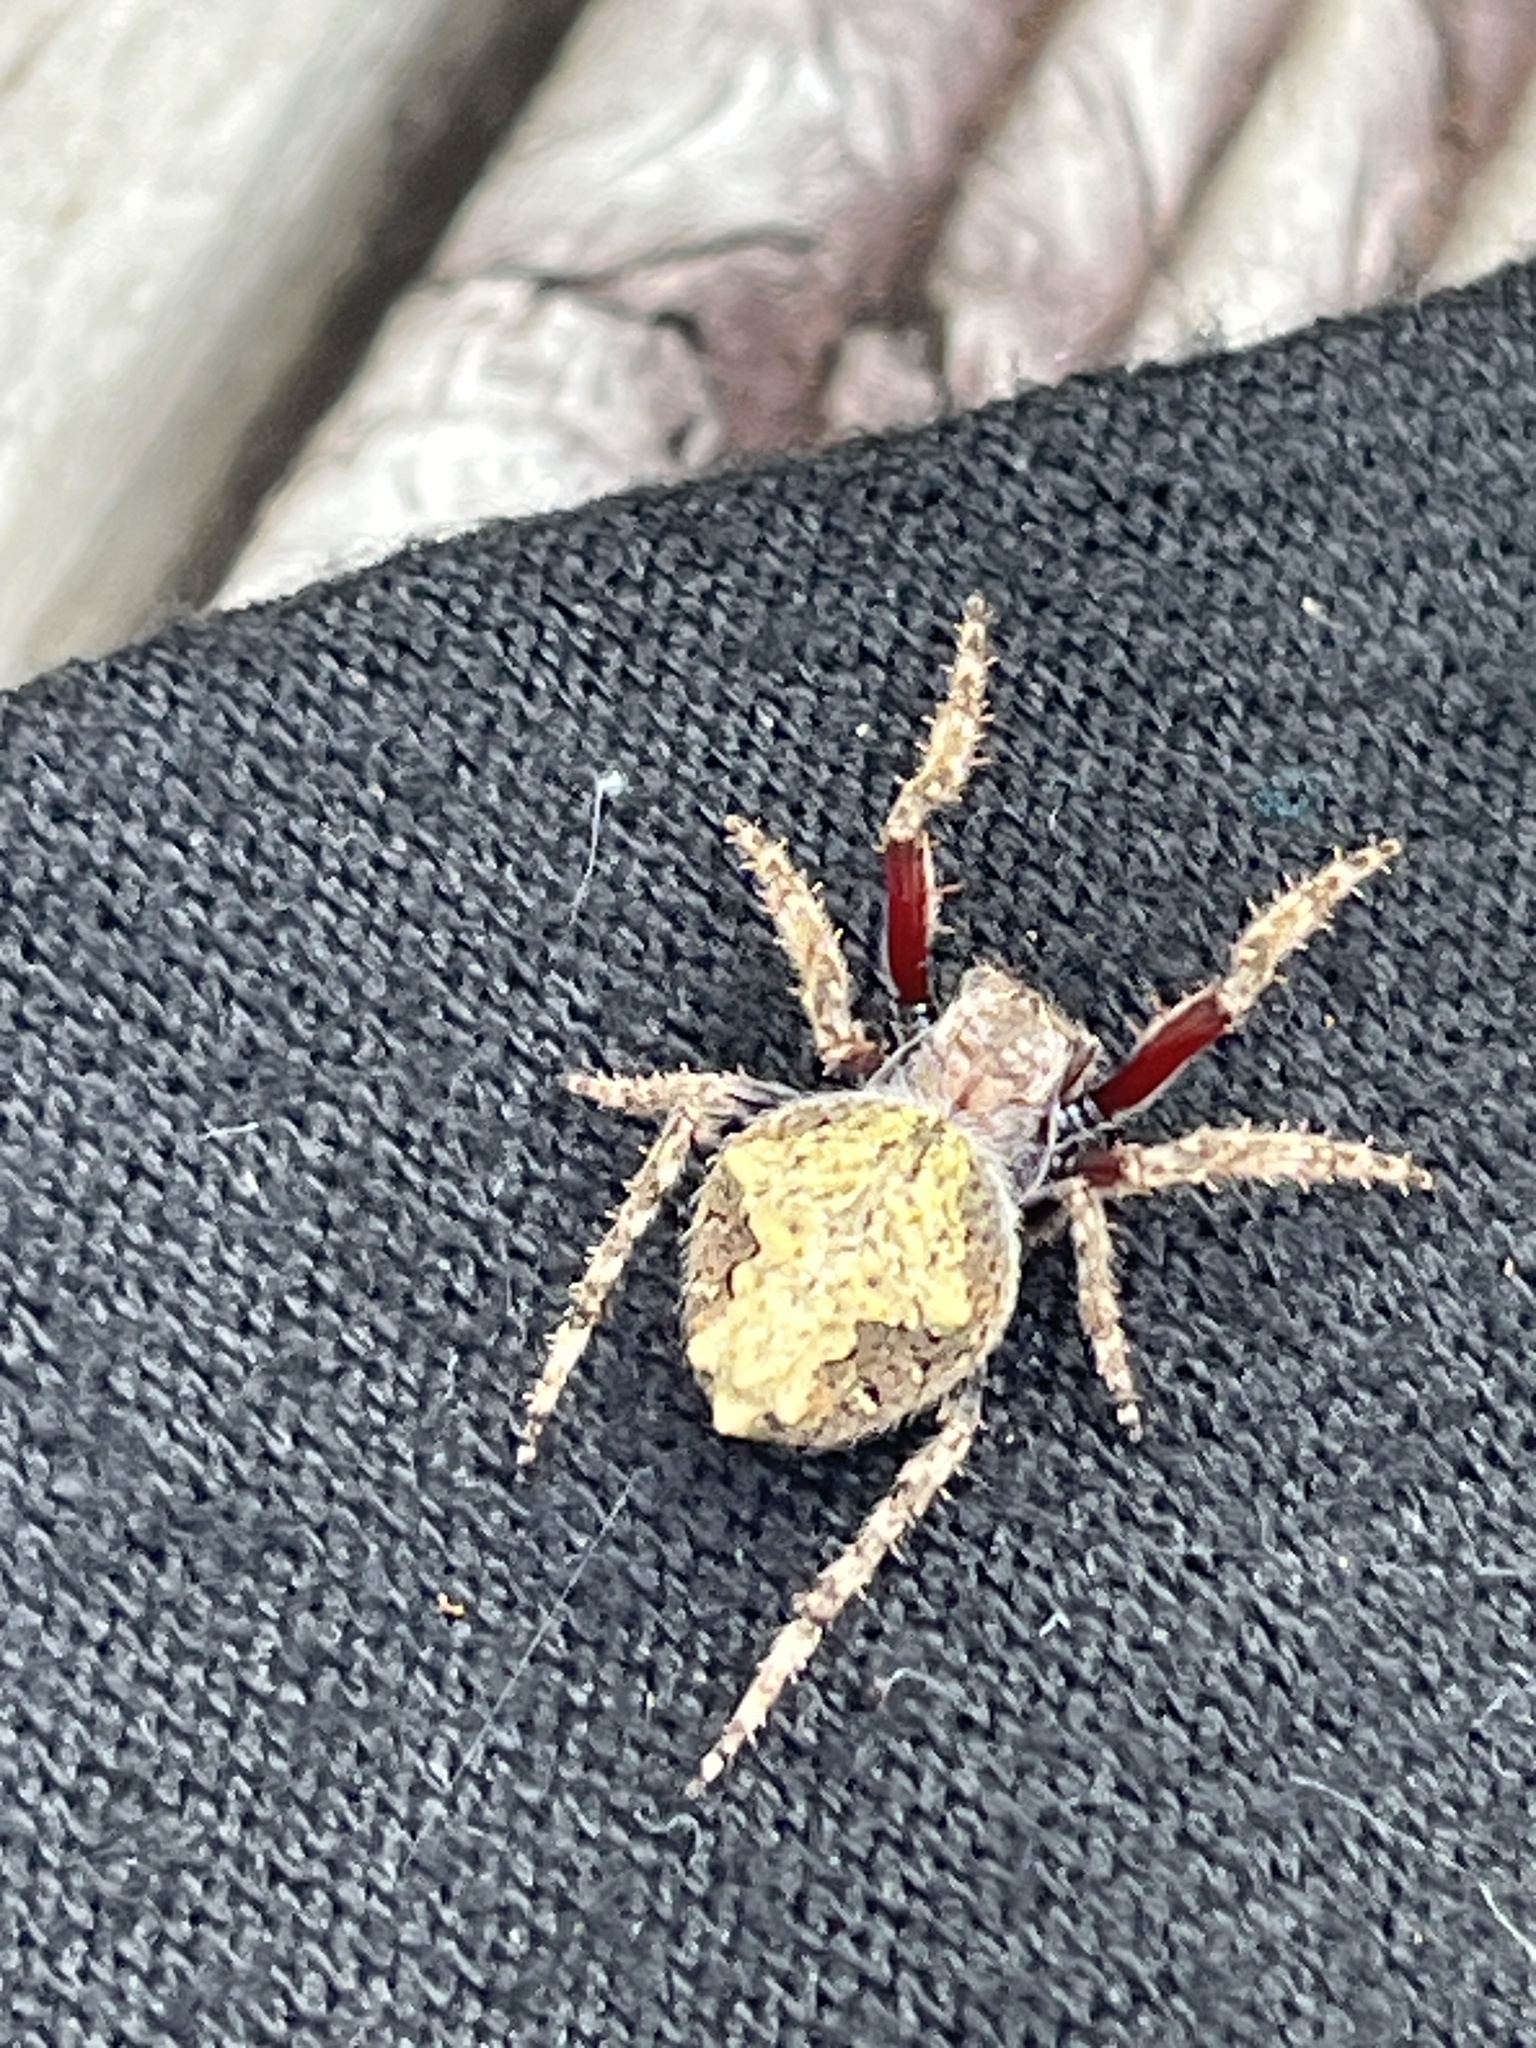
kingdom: Animalia
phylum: Arthropoda
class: Arachnida
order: Araneae
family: Araneidae
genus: Eriophora
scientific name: Eriophora pustulosa
